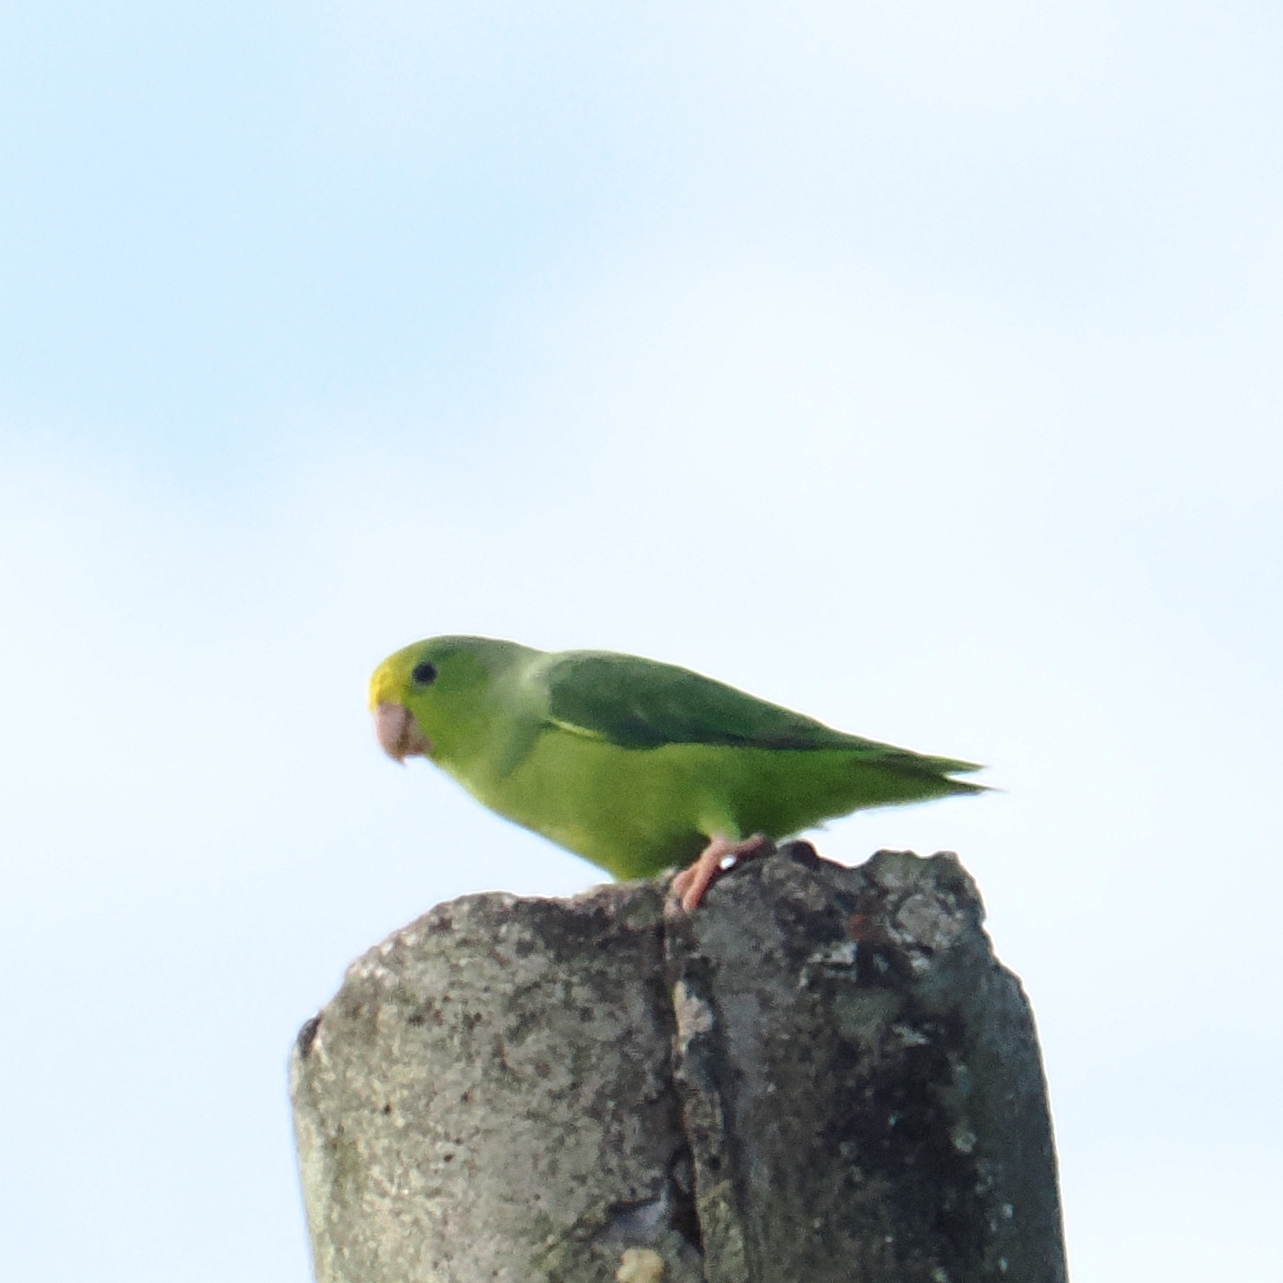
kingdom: Animalia
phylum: Chordata
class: Aves
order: Psittaciformes
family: Psittacidae
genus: Forpus
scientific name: Forpus xanthopterygius
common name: Blue-winged parrotlet
